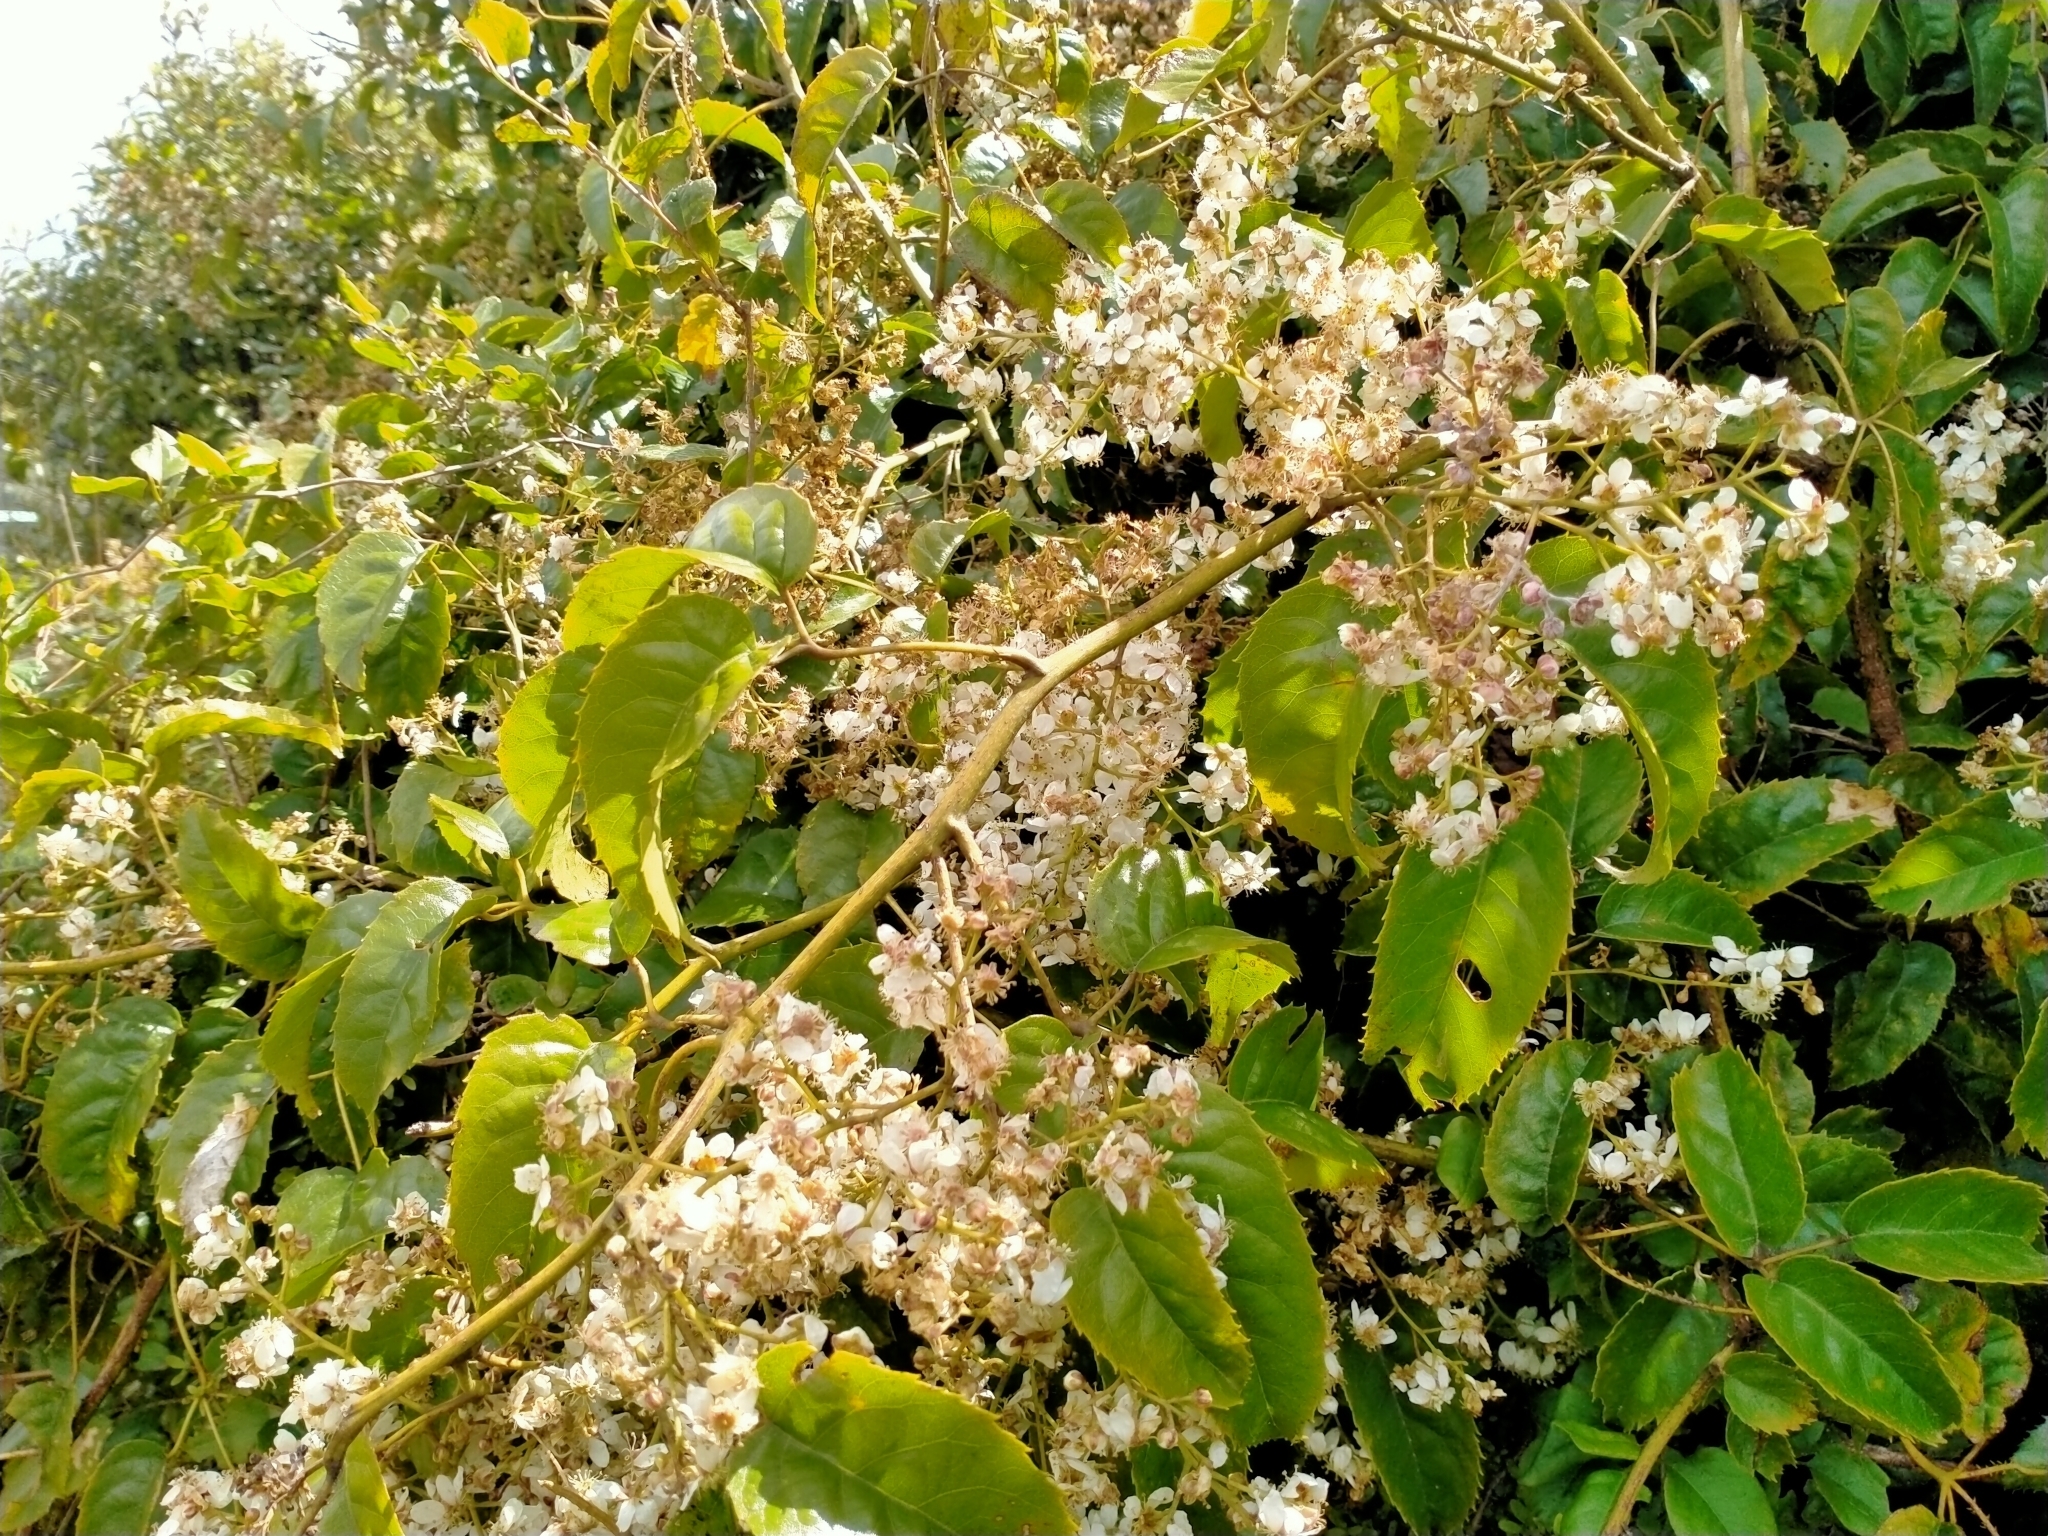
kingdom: Plantae
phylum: Tracheophyta
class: Magnoliopsida
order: Rosales
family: Rosaceae
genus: Rubus
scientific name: Rubus cissoides
